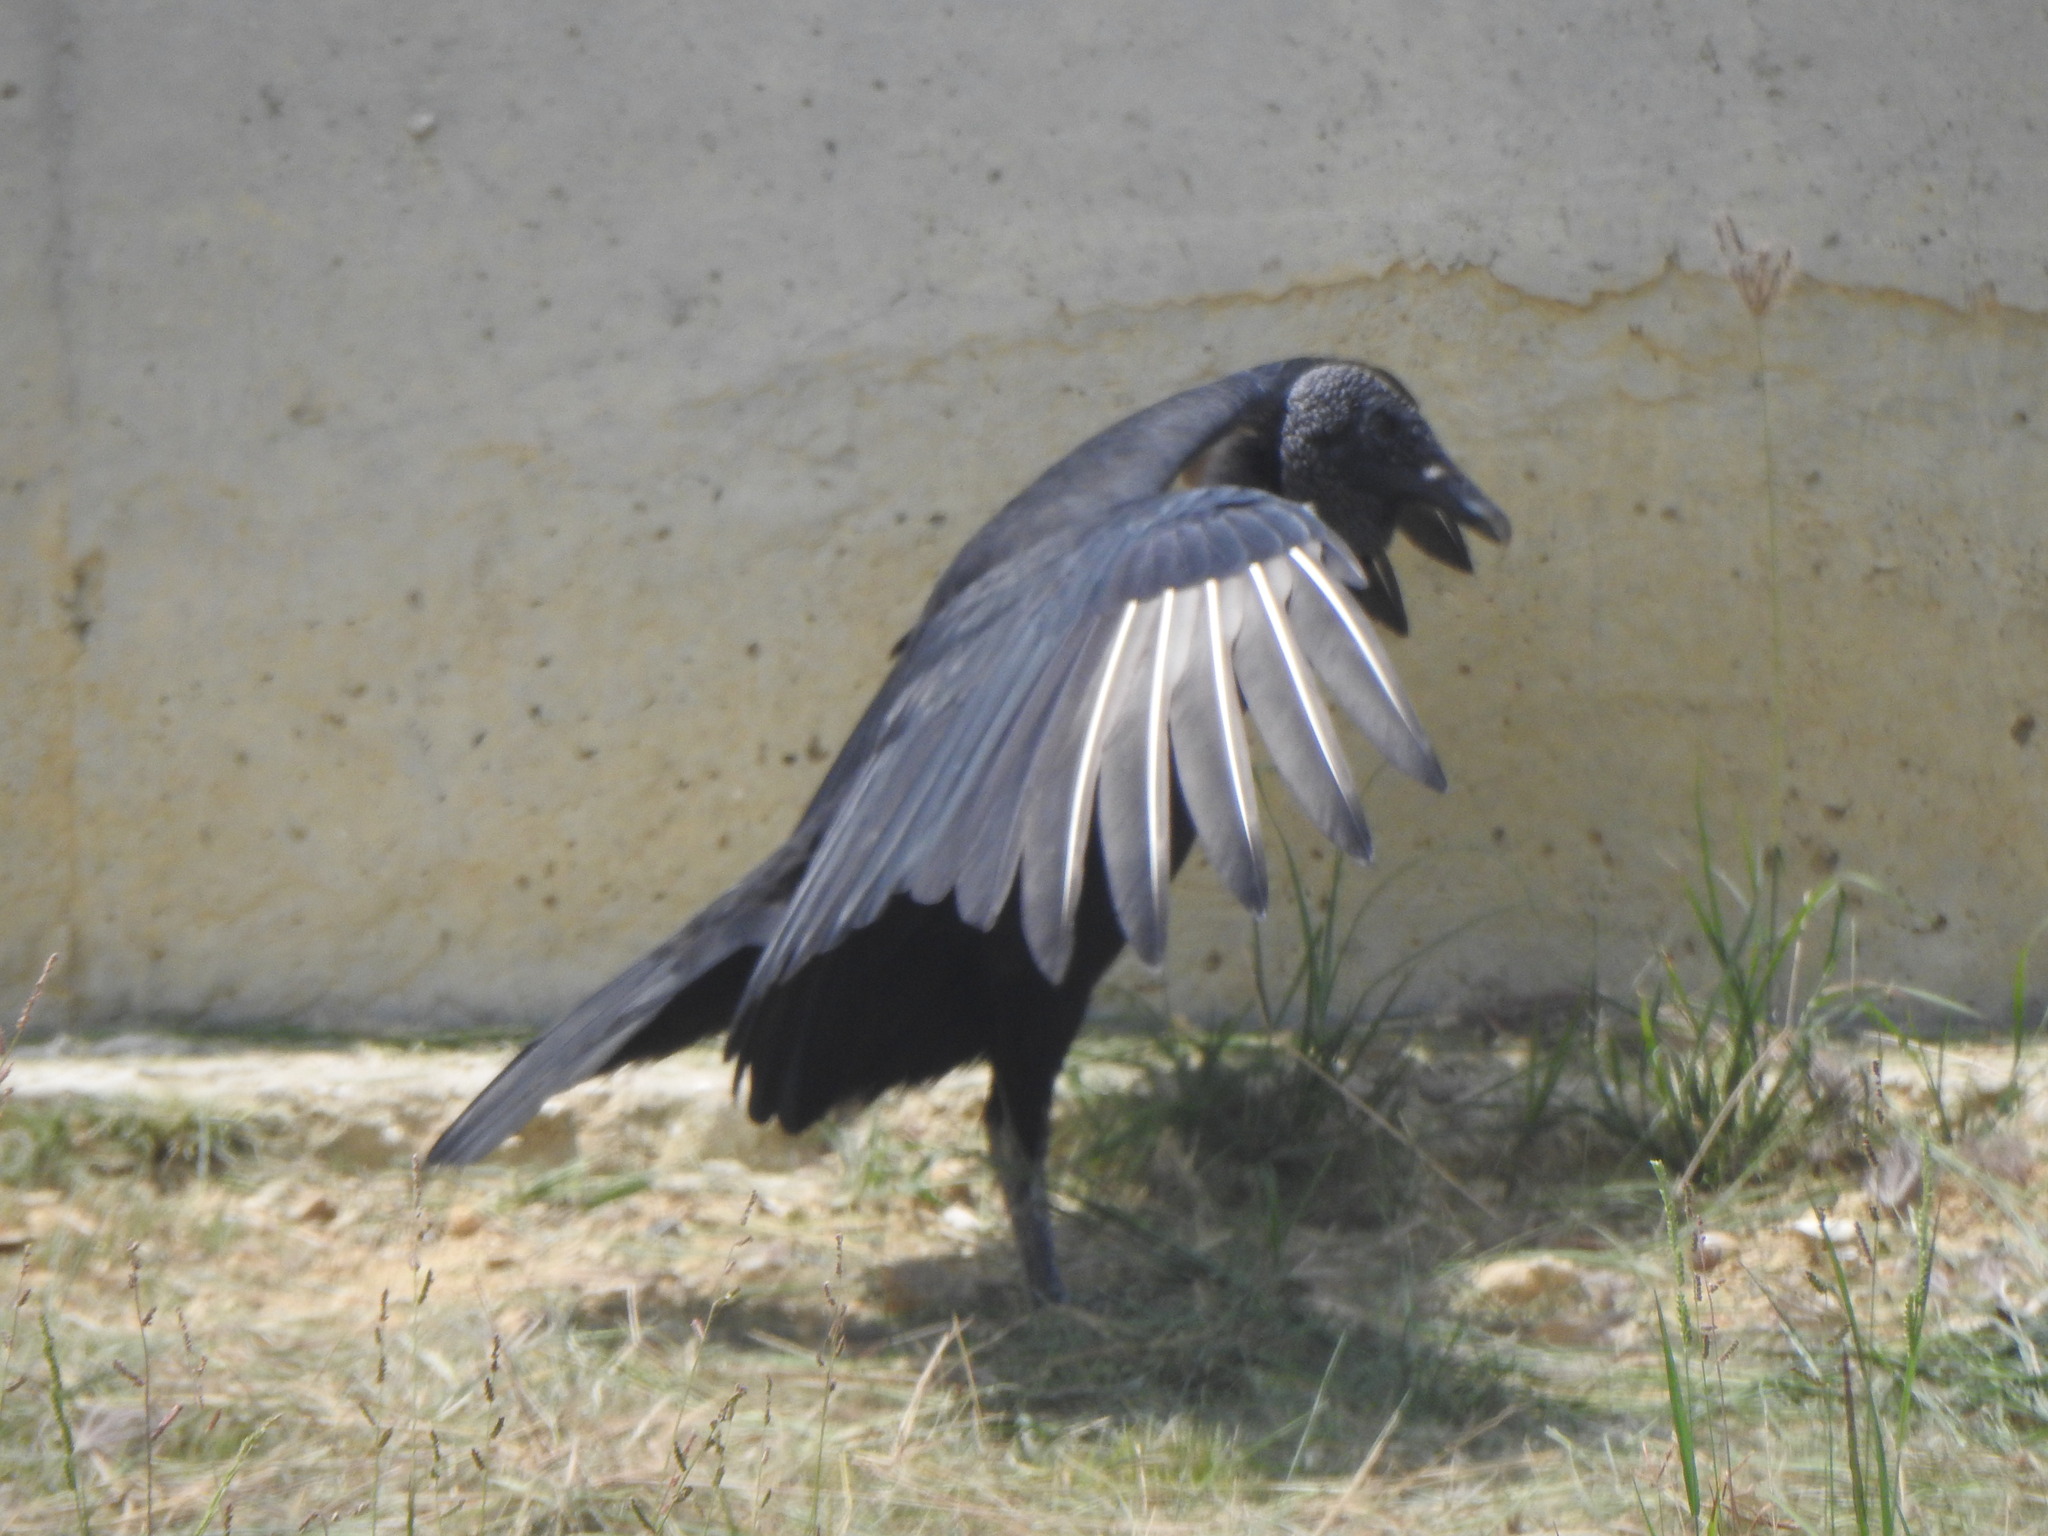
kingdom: Animalia
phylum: Chordata
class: Aves
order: Accipitriformes
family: Cathartidae
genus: Coragyps
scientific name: Coragyps atratus
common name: Black vulture
